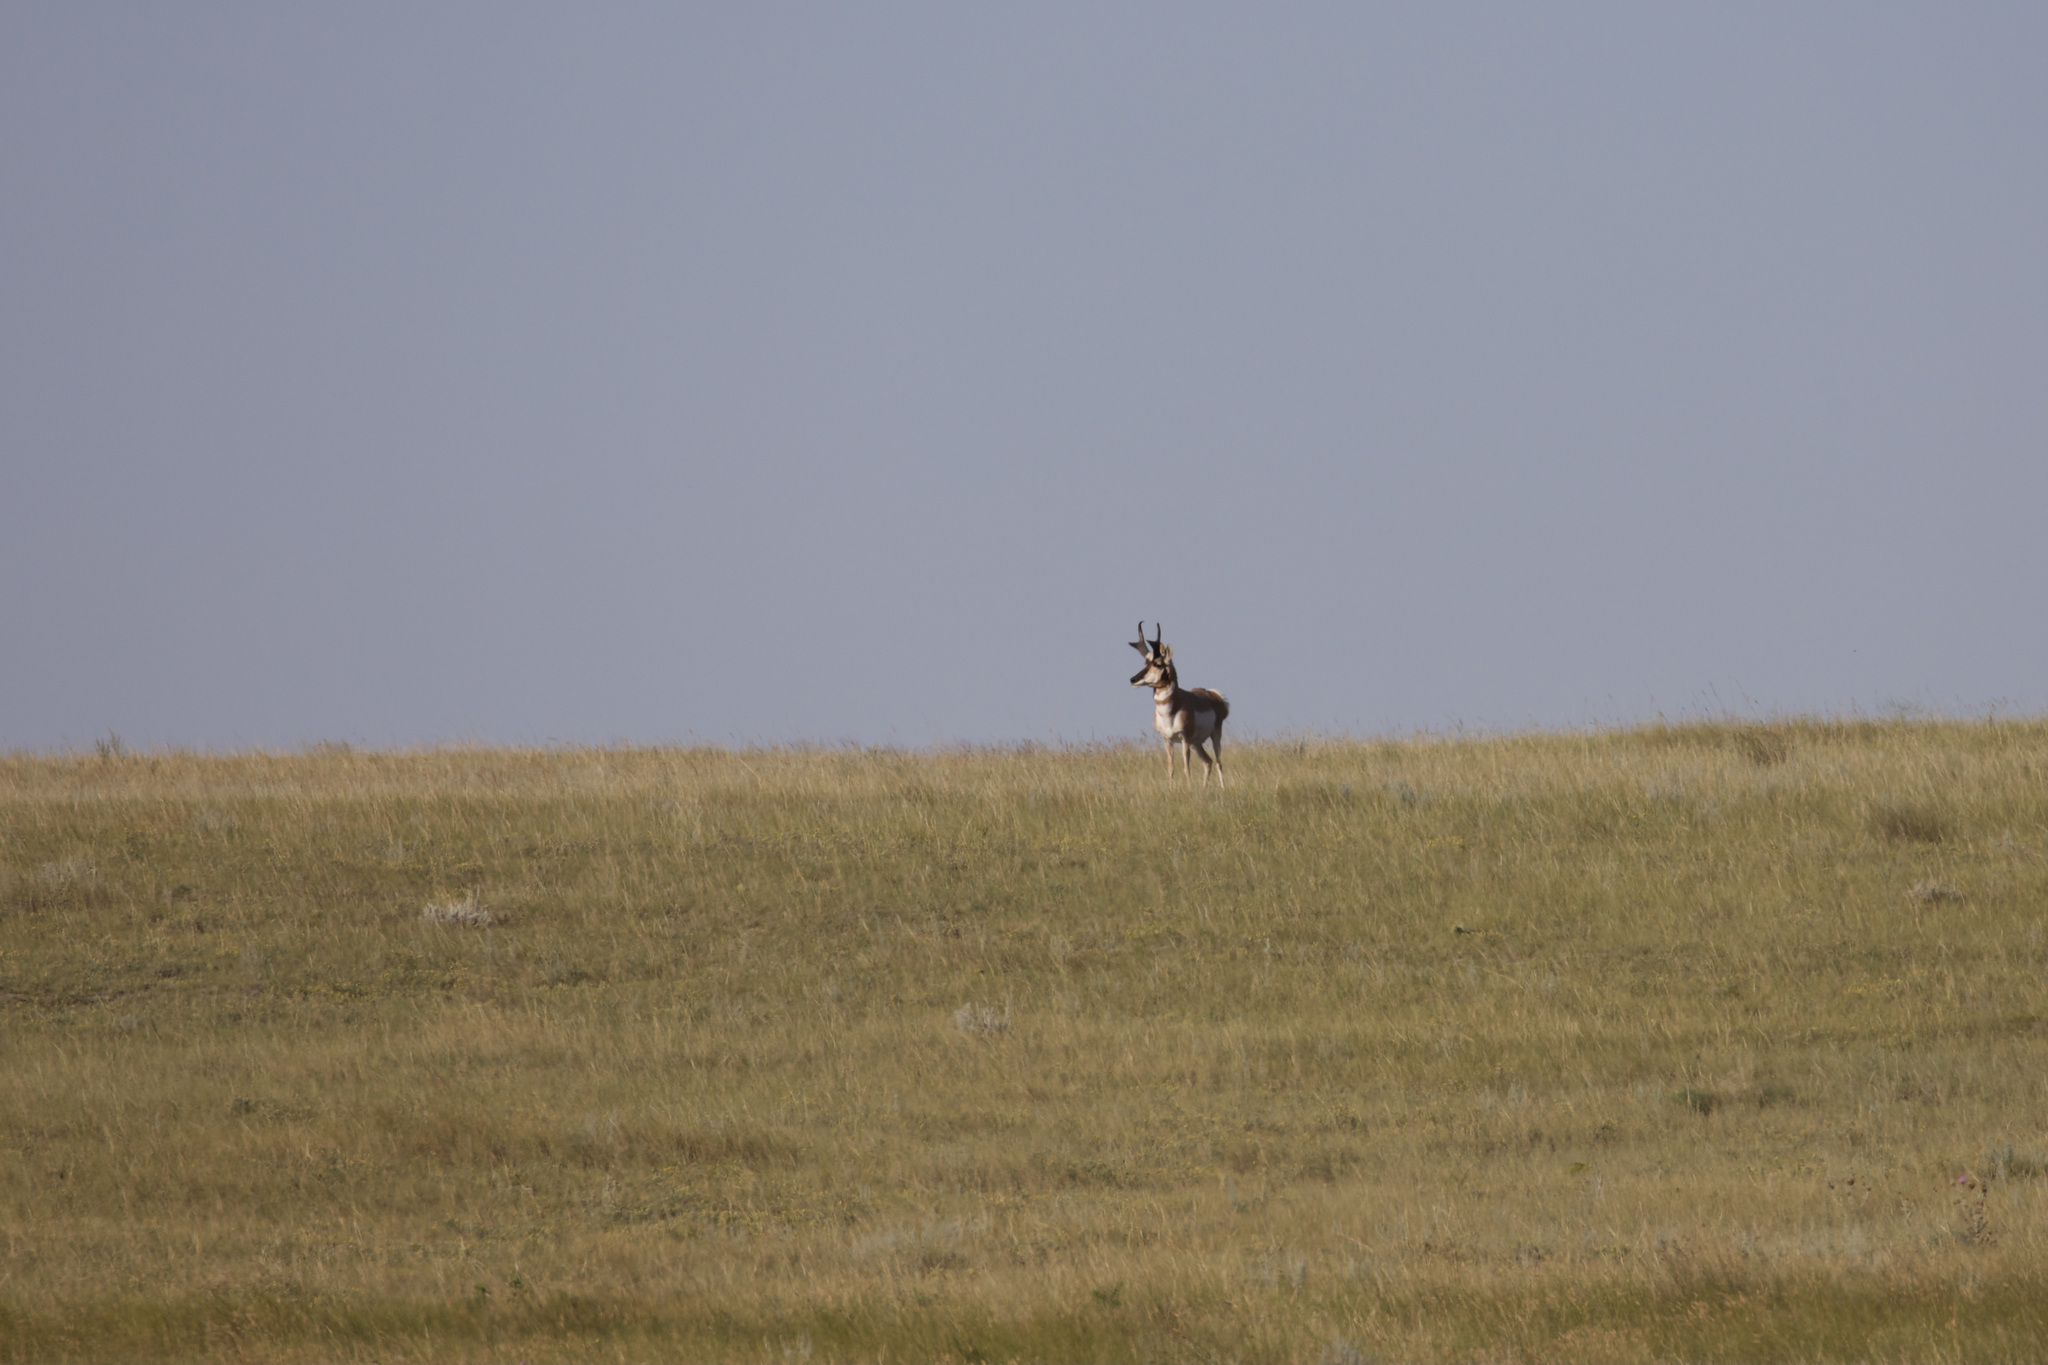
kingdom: Animalia
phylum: Chordata
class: Mammalia
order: Artiodactyla
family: Antilocapridae
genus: Antilocapra
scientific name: Antilocapra americana
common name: Pronghorn
